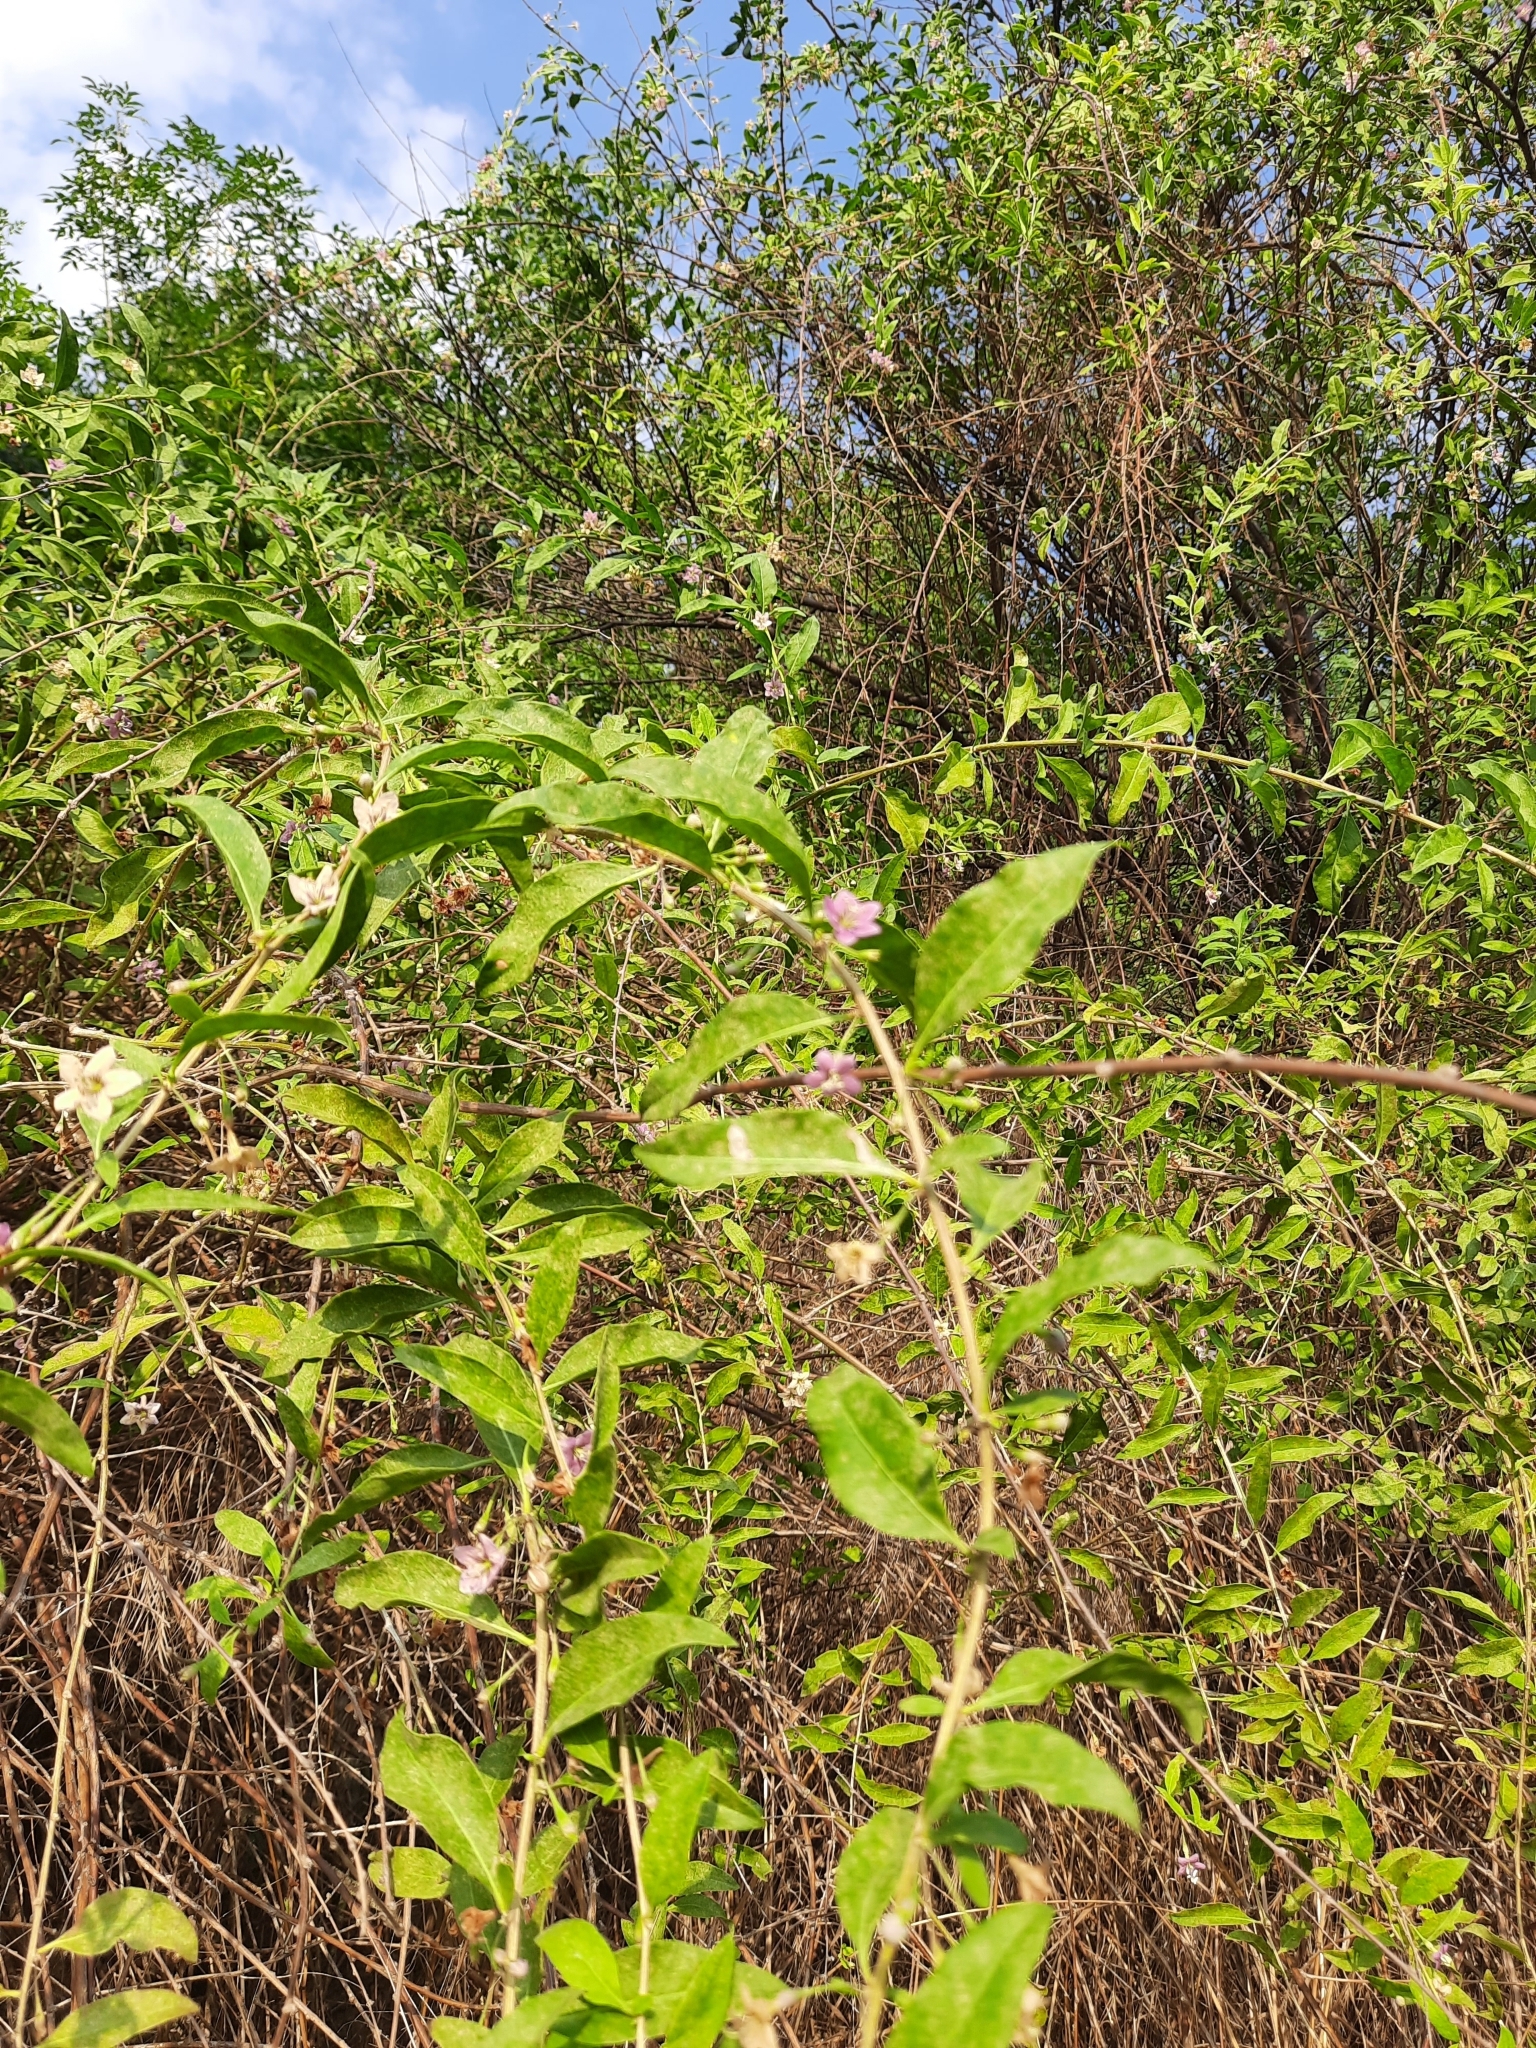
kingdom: Plantae
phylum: Tracheophyta
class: Magnoliopsida
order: Solanales
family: Solanaceae
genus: Lycium
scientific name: Lycium barbarum
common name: Duke of argyll's teaplant
